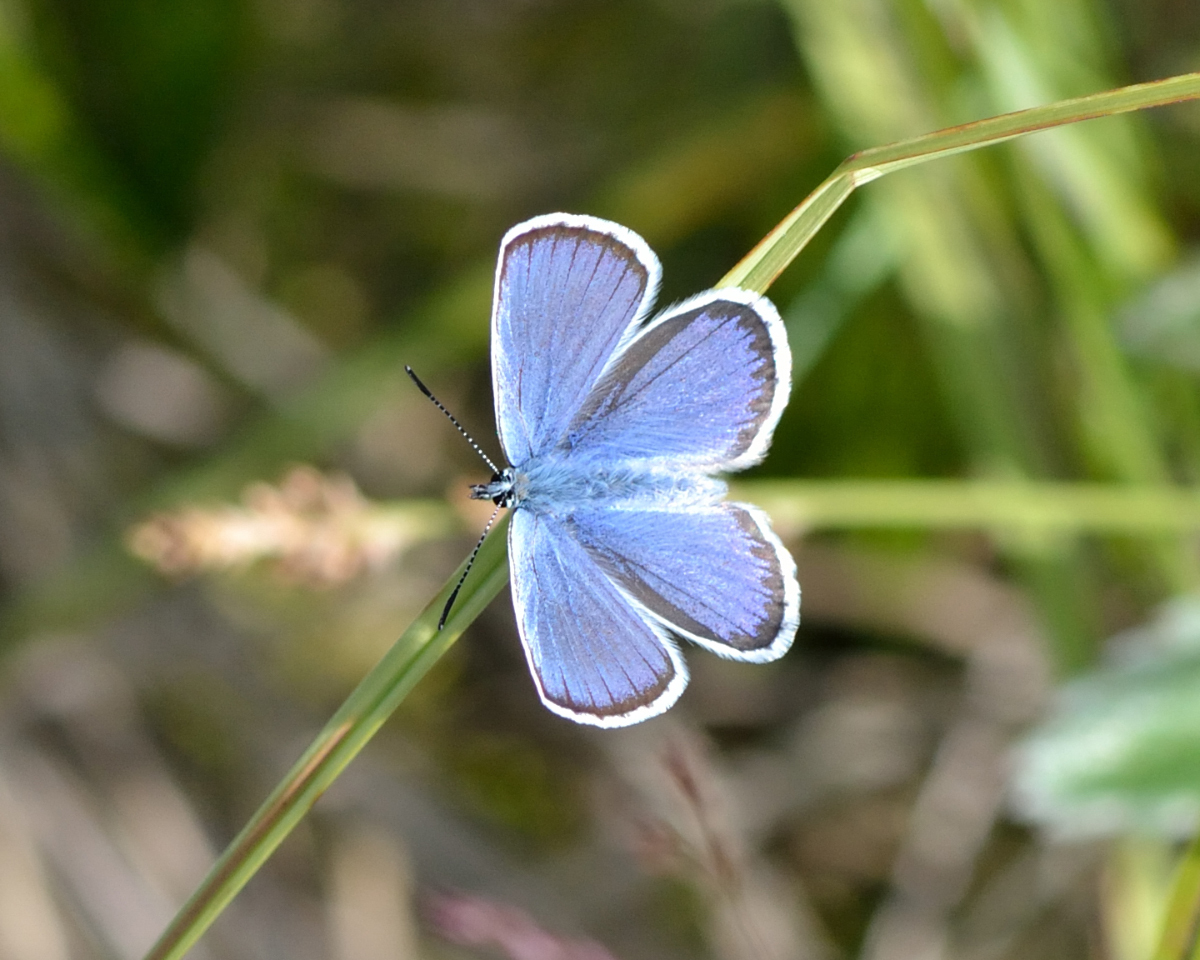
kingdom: Animalia
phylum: Arthropoda
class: Insecta
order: Lepidoptera
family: Lycaenidae
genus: Lycaeides
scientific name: Lycaeides idas
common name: Northern blue
